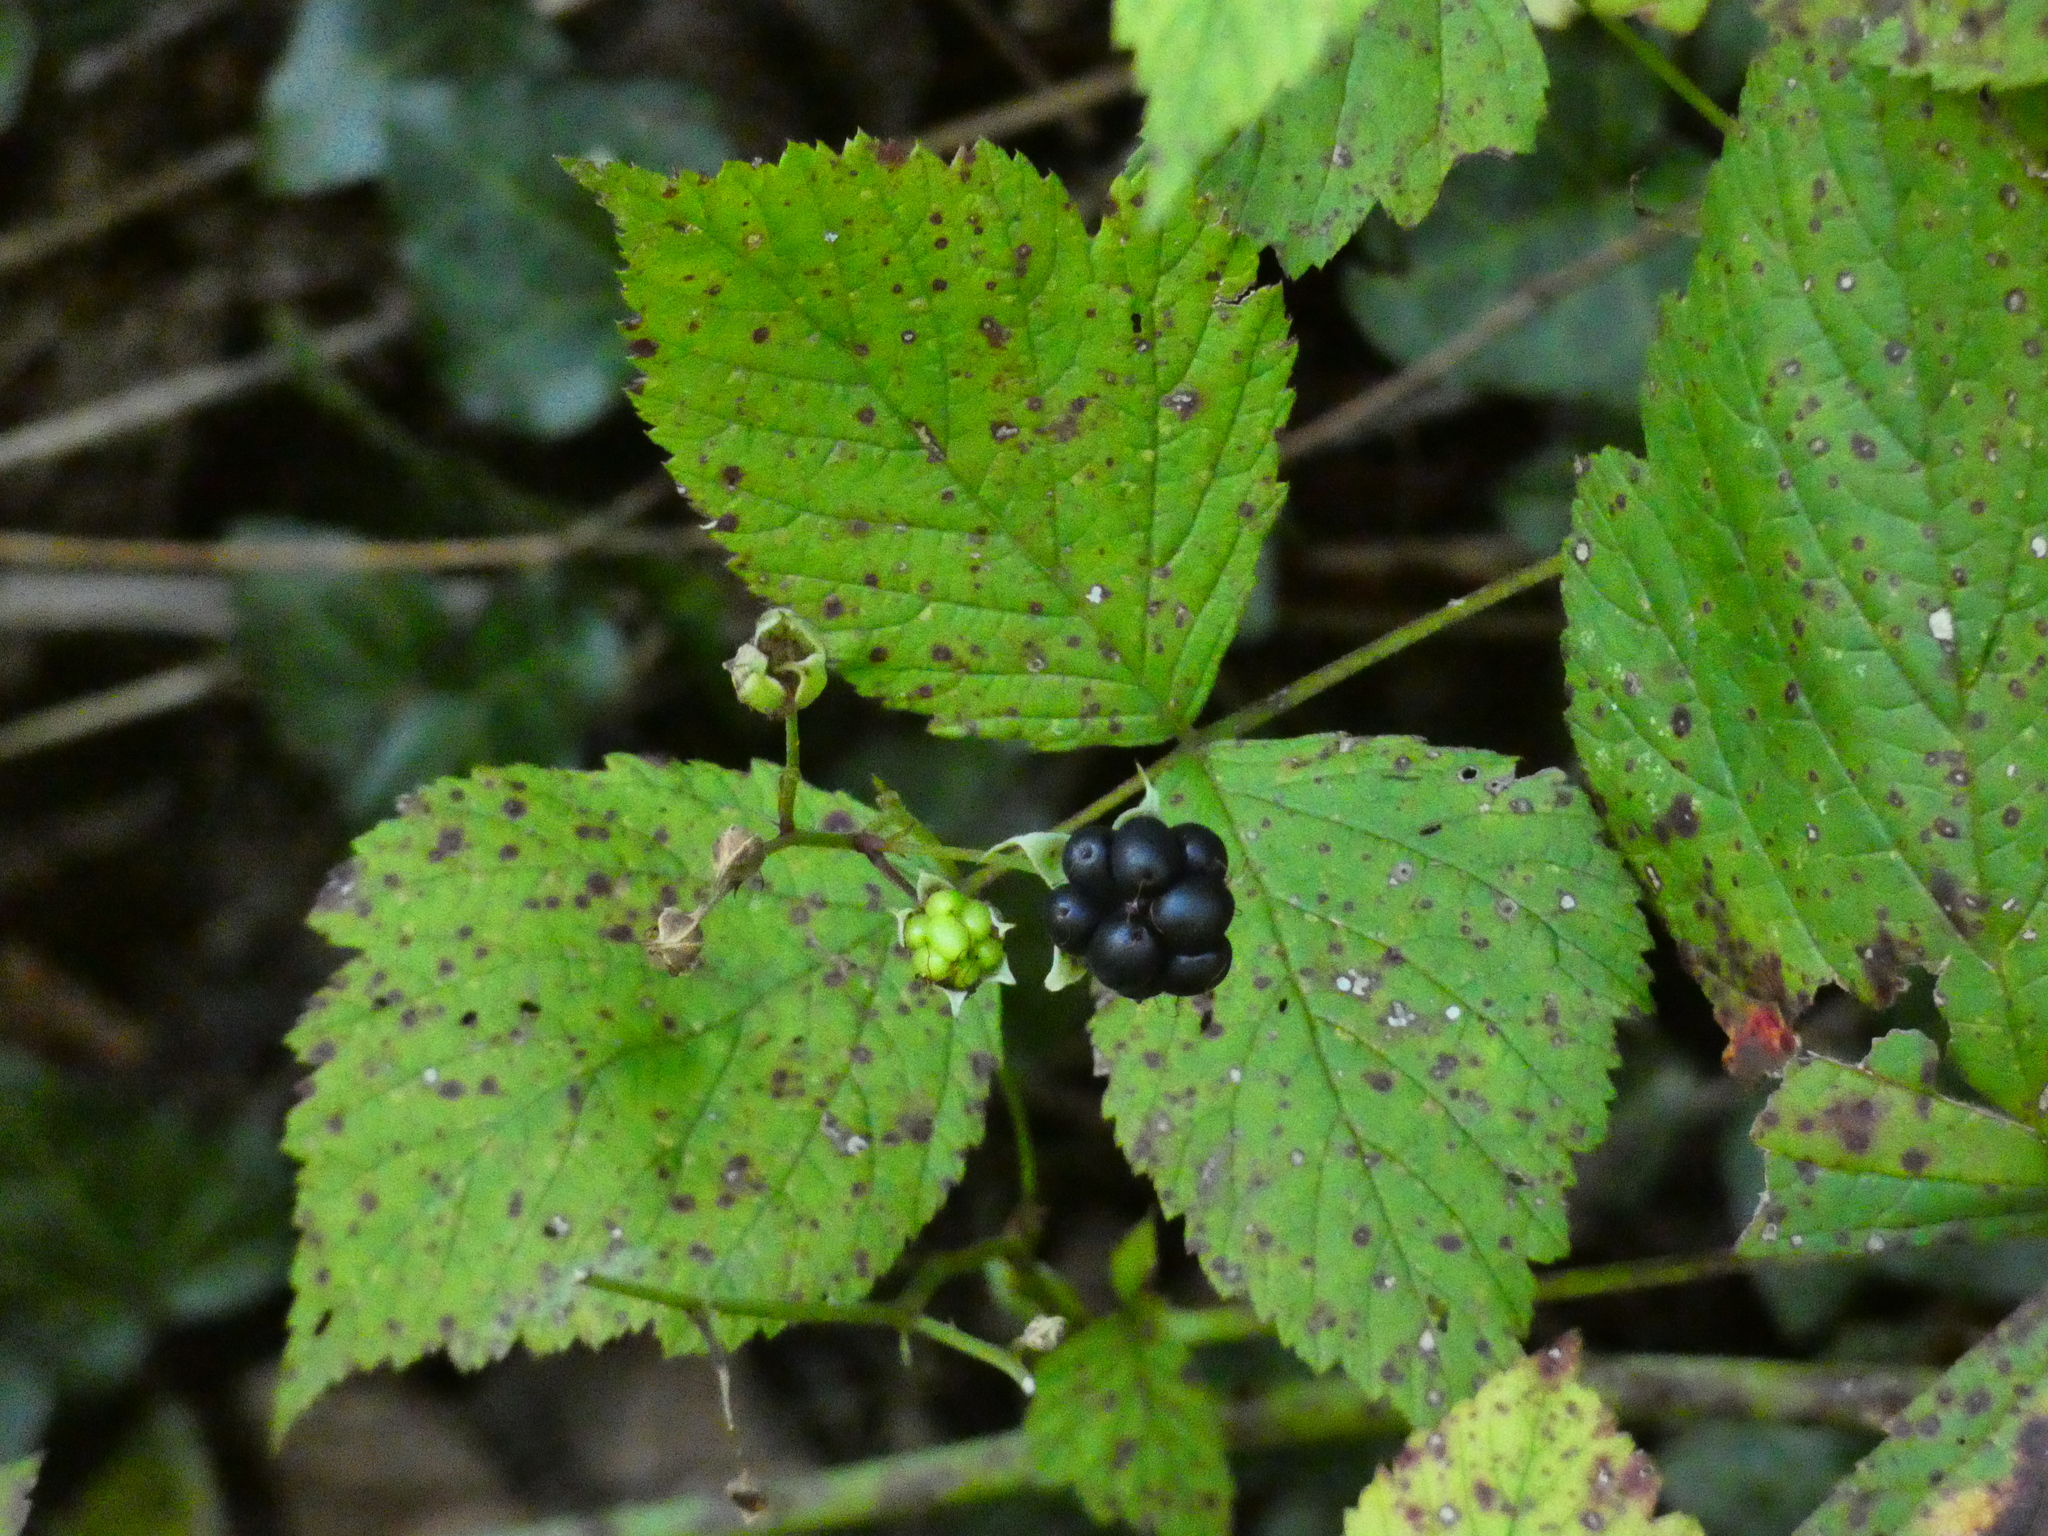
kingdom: Plantae
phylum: Tracheophyta
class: Magnoliopsida
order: Rosales
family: Rosaceae
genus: Rubus
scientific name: Rubus caesius
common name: Dewberry
